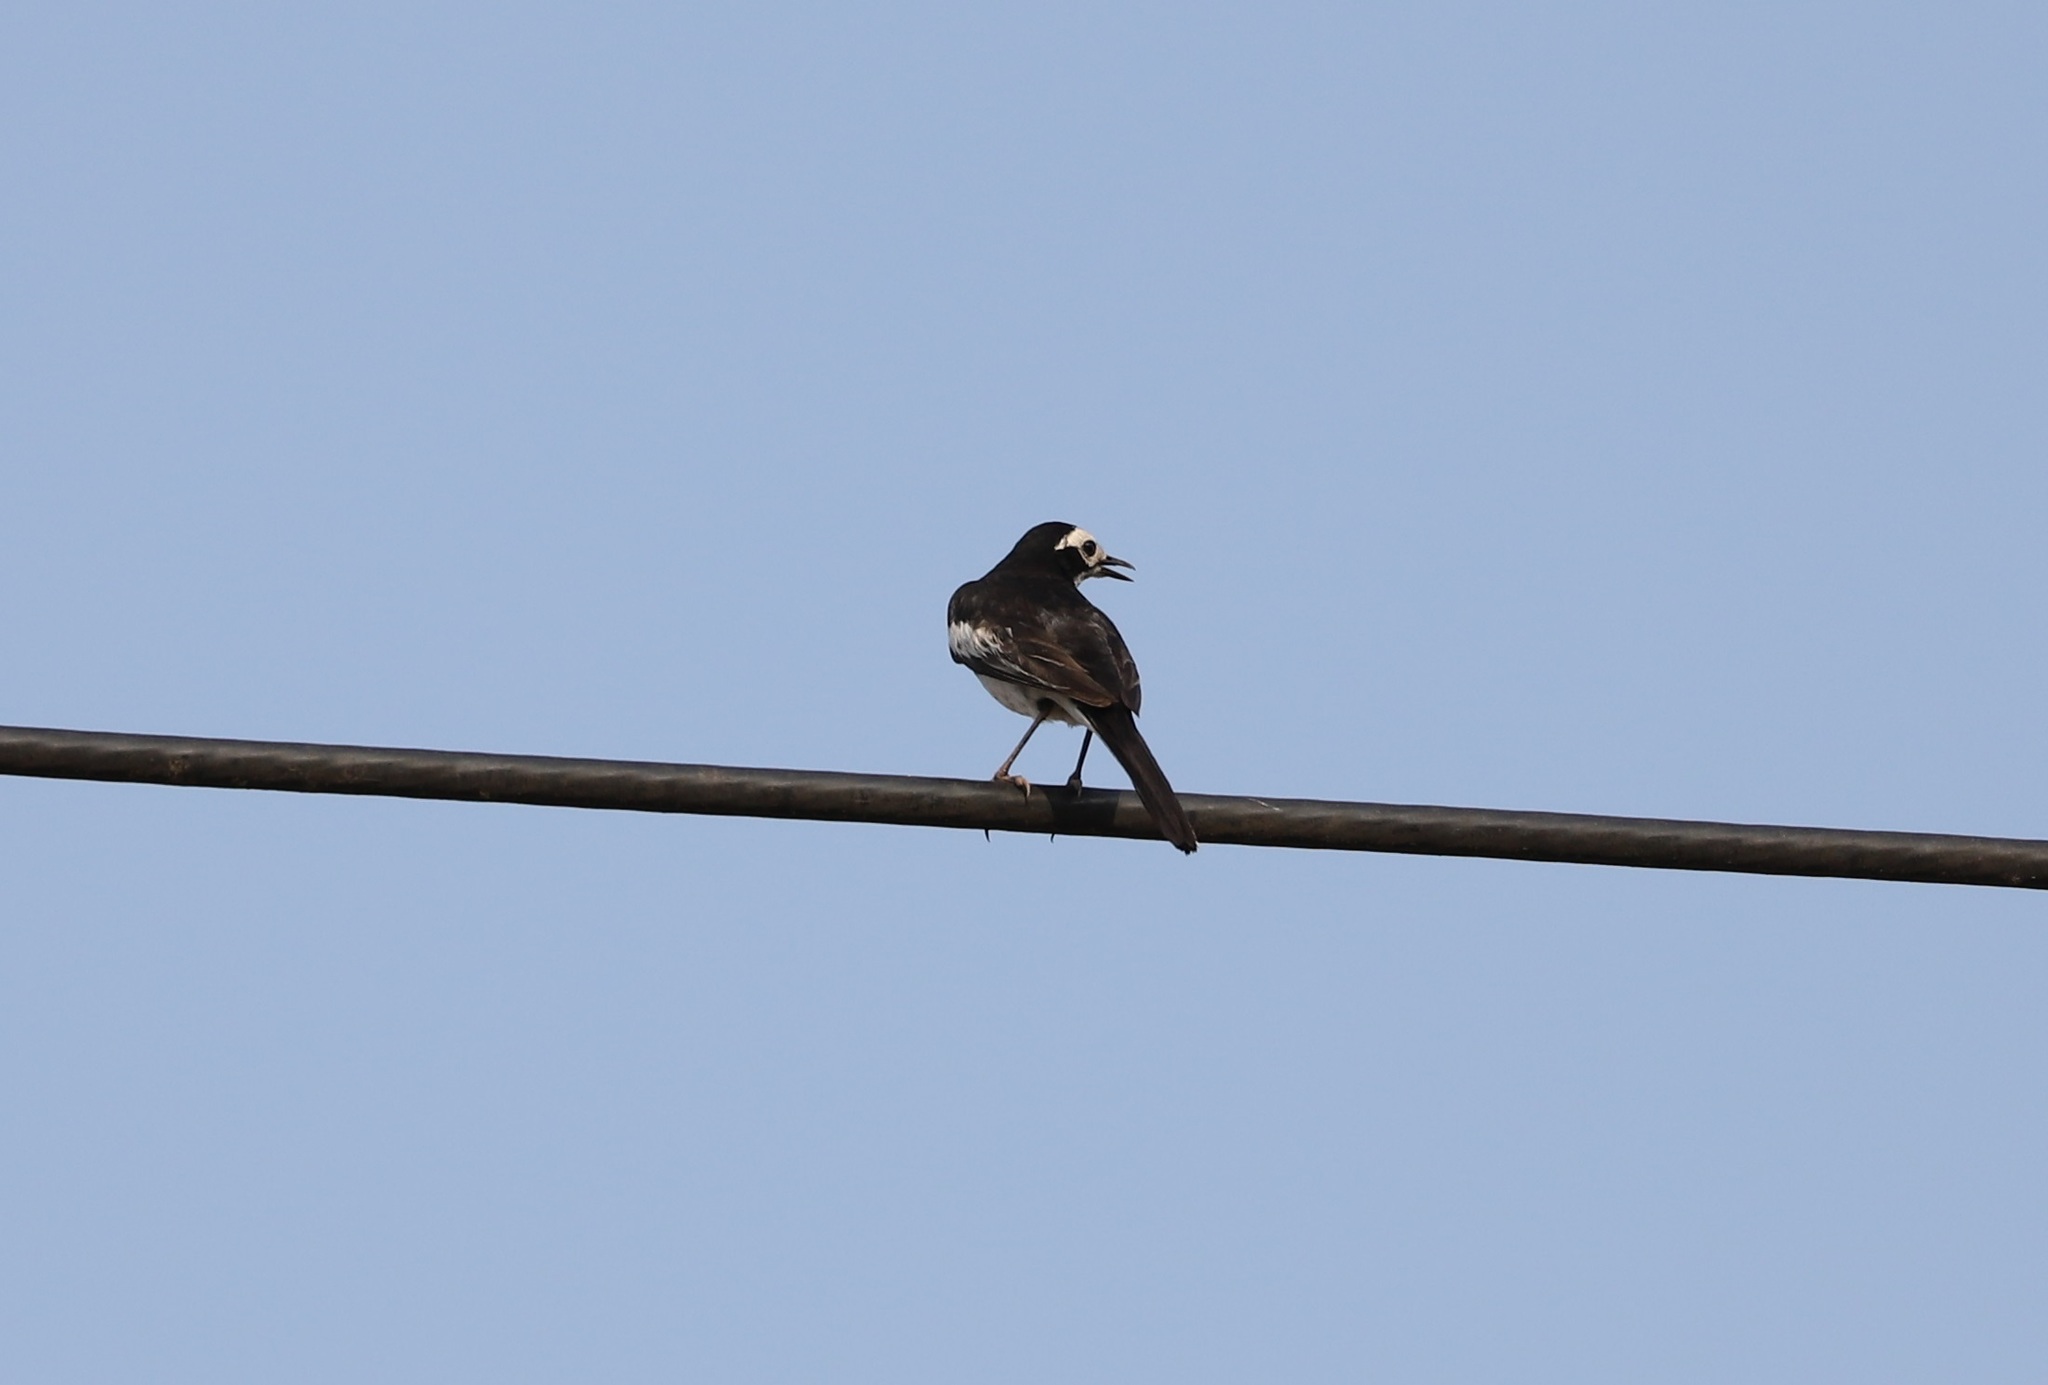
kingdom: Animalia
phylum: Chordata
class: Aves
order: Passeriformes
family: Motacillidae
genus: Motacilla
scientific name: Motacilla alba
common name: White wagtail
